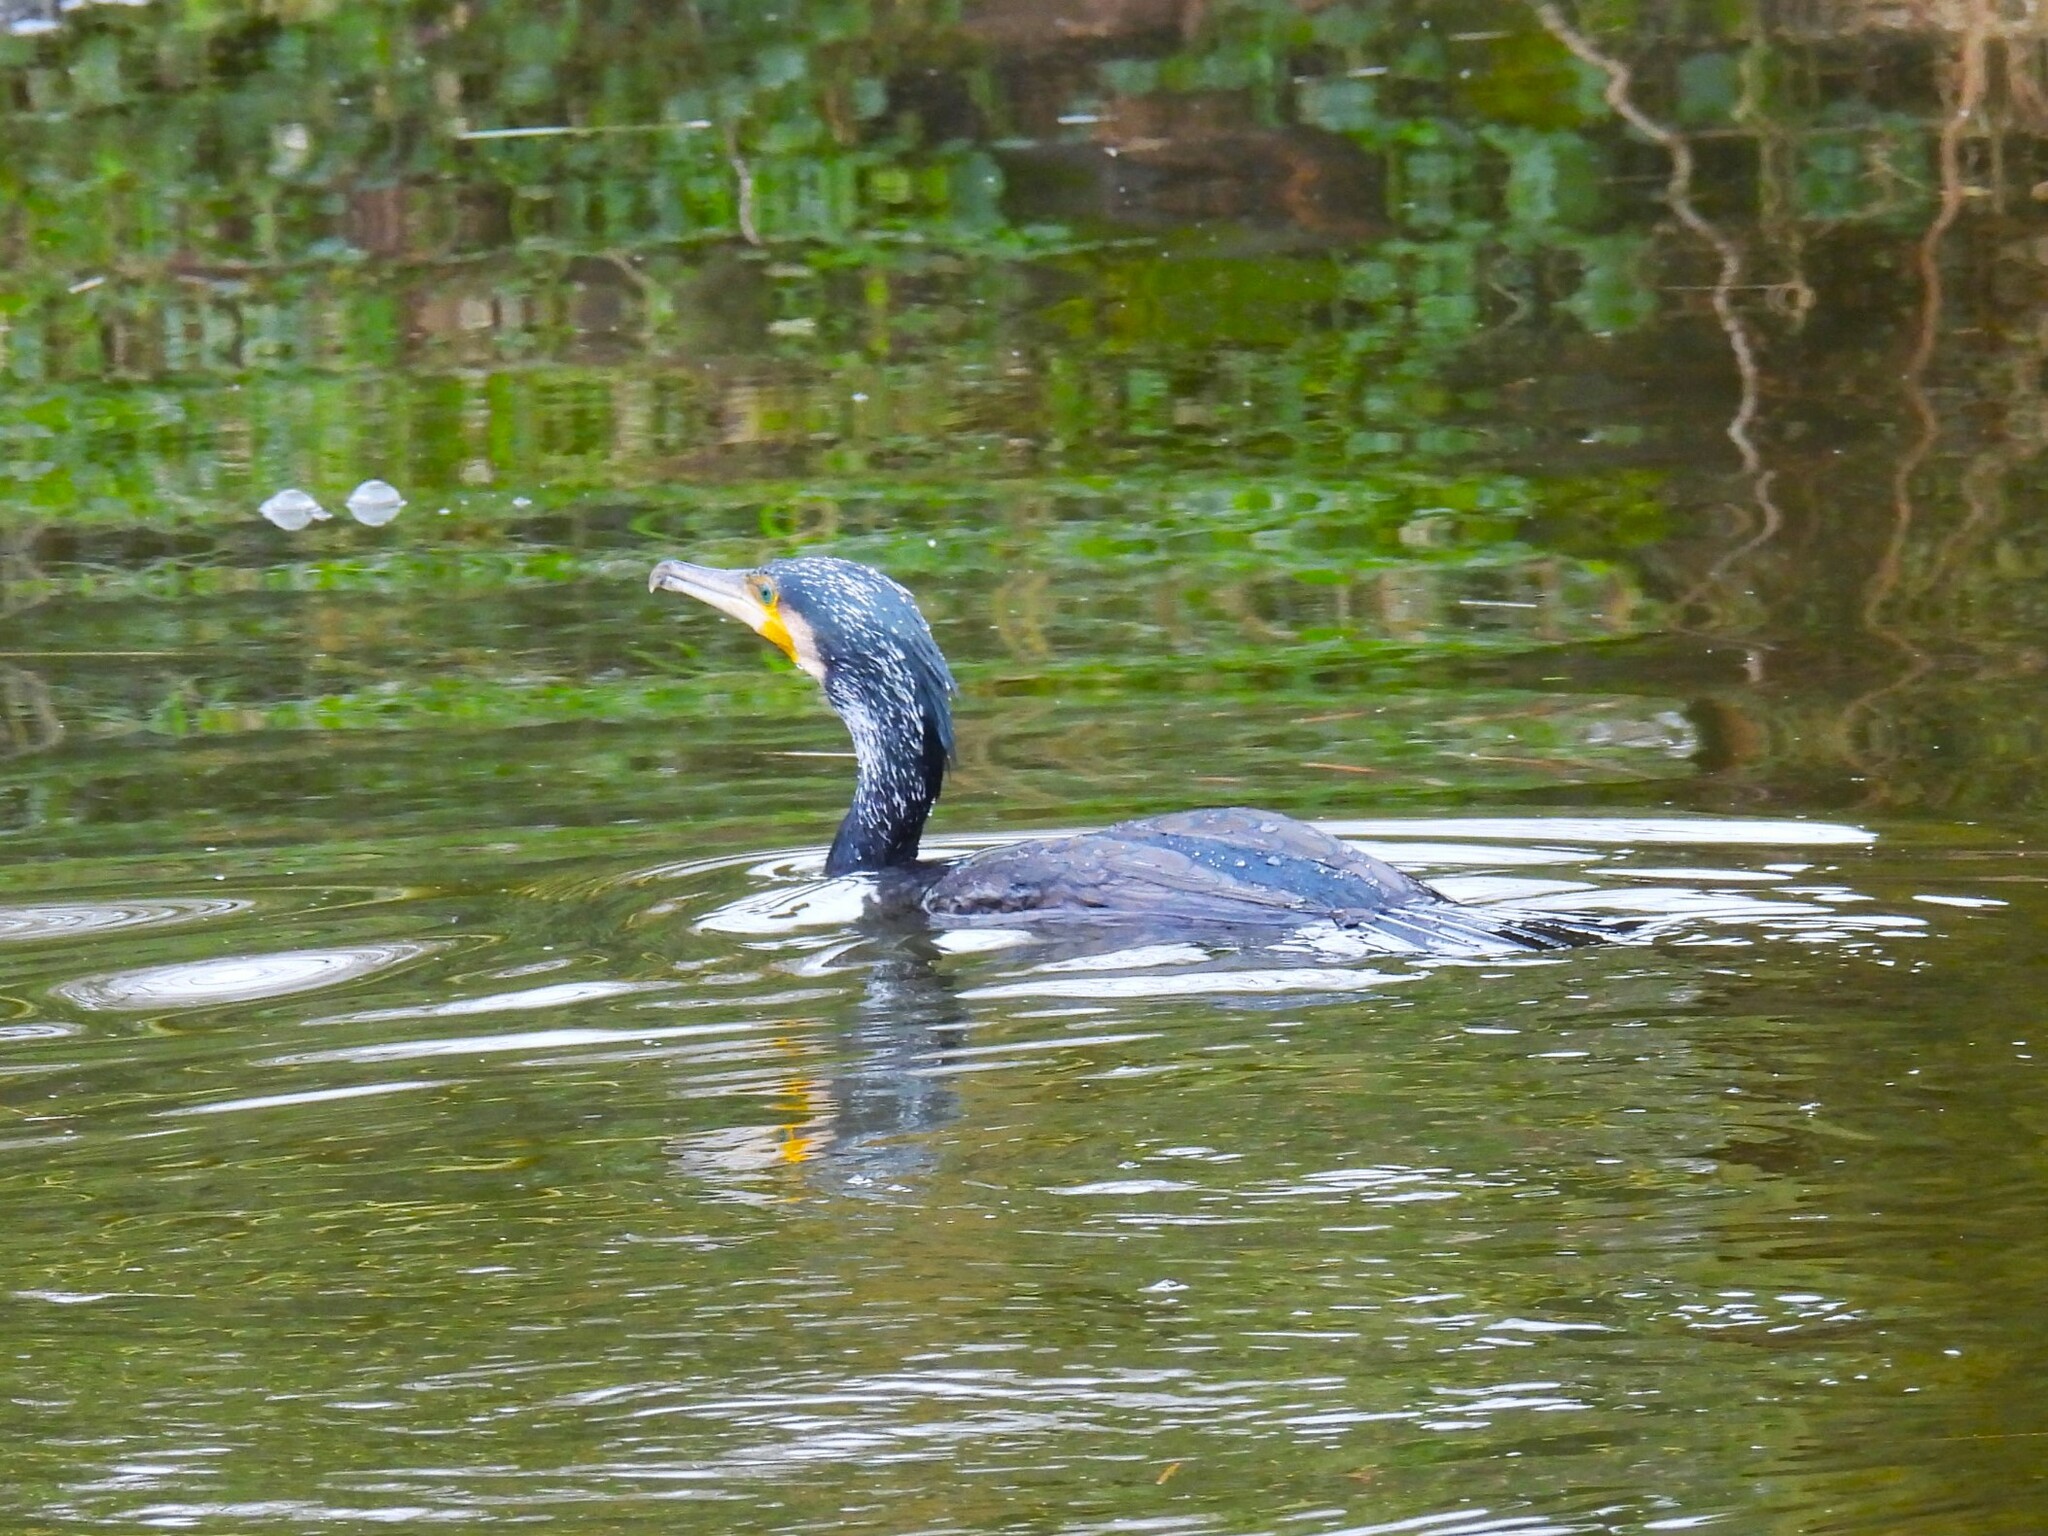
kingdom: Animalia
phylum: Chordata
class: Aves
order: Suliformes
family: Phalacrocoracidae
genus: Phalacrocorax
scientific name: Phalacrocorax carbo
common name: Great cormorant
